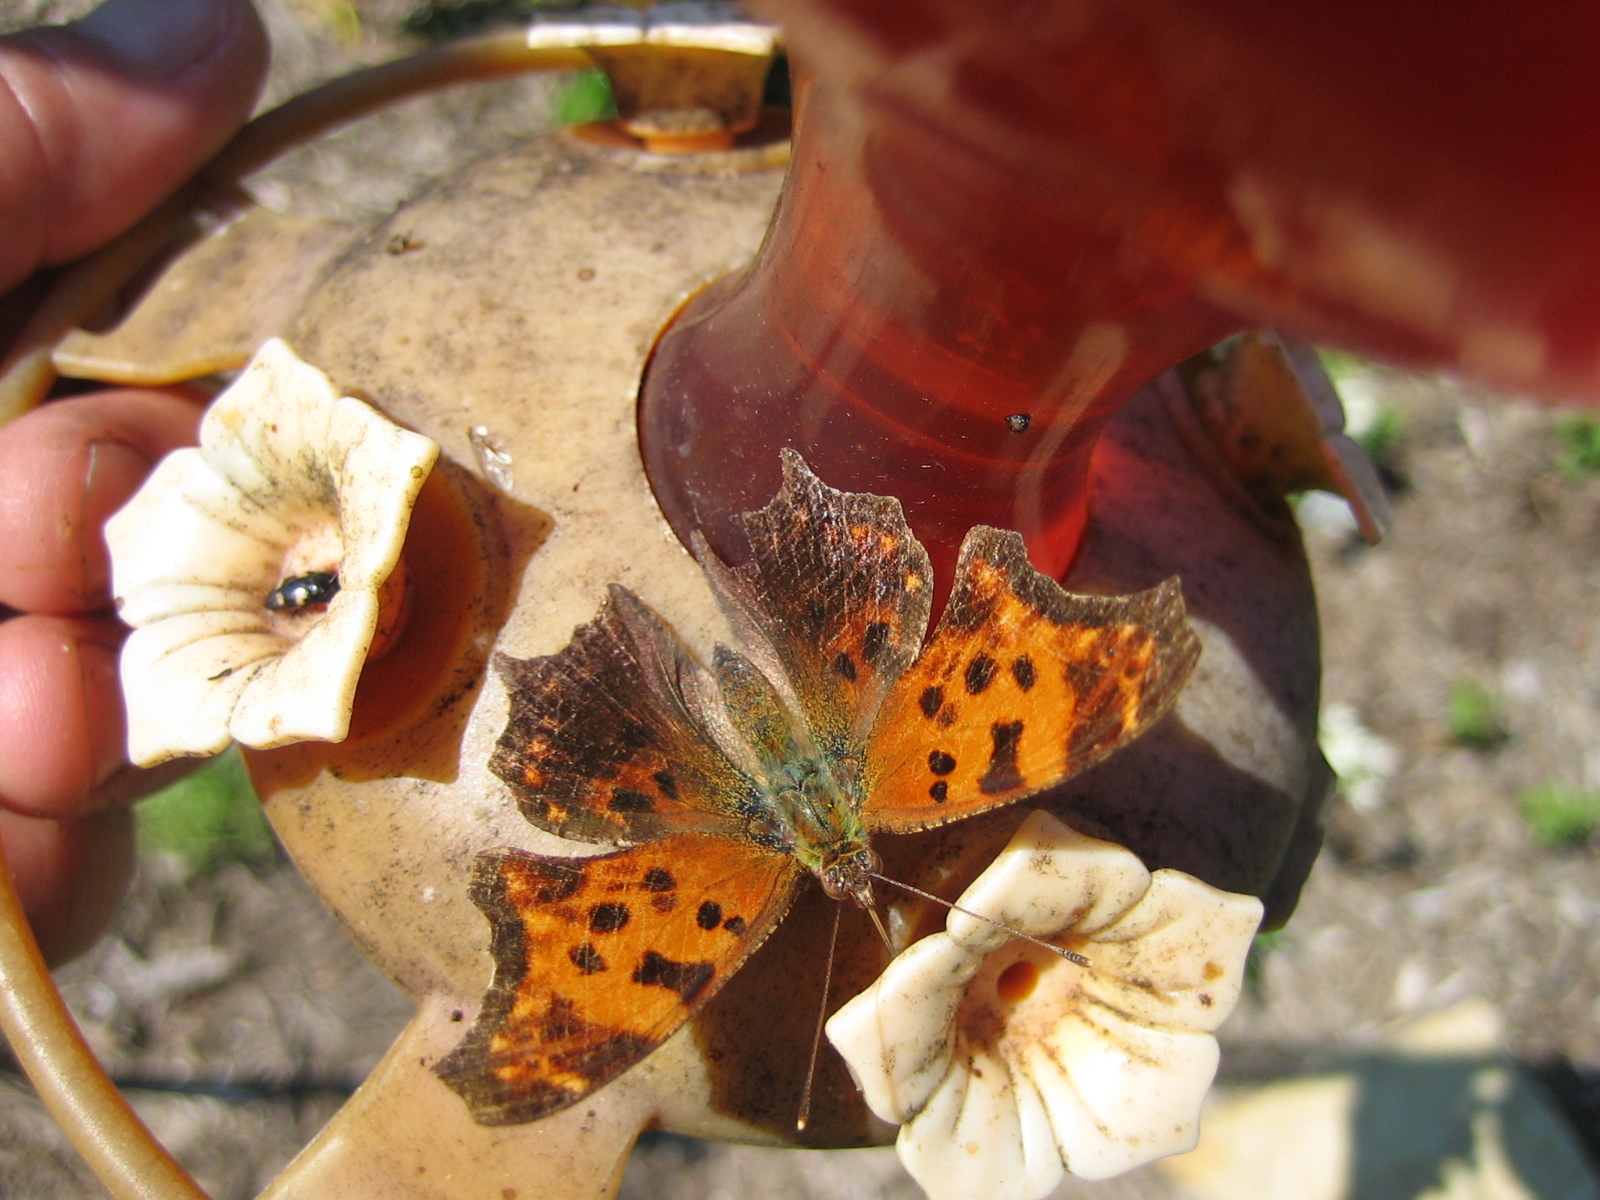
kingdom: Animalia
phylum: Arthropoda
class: Insecta
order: Lepidoptera
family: Nymphalidae
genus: Polygonia
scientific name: Polygonia comma
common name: Eastern comma
